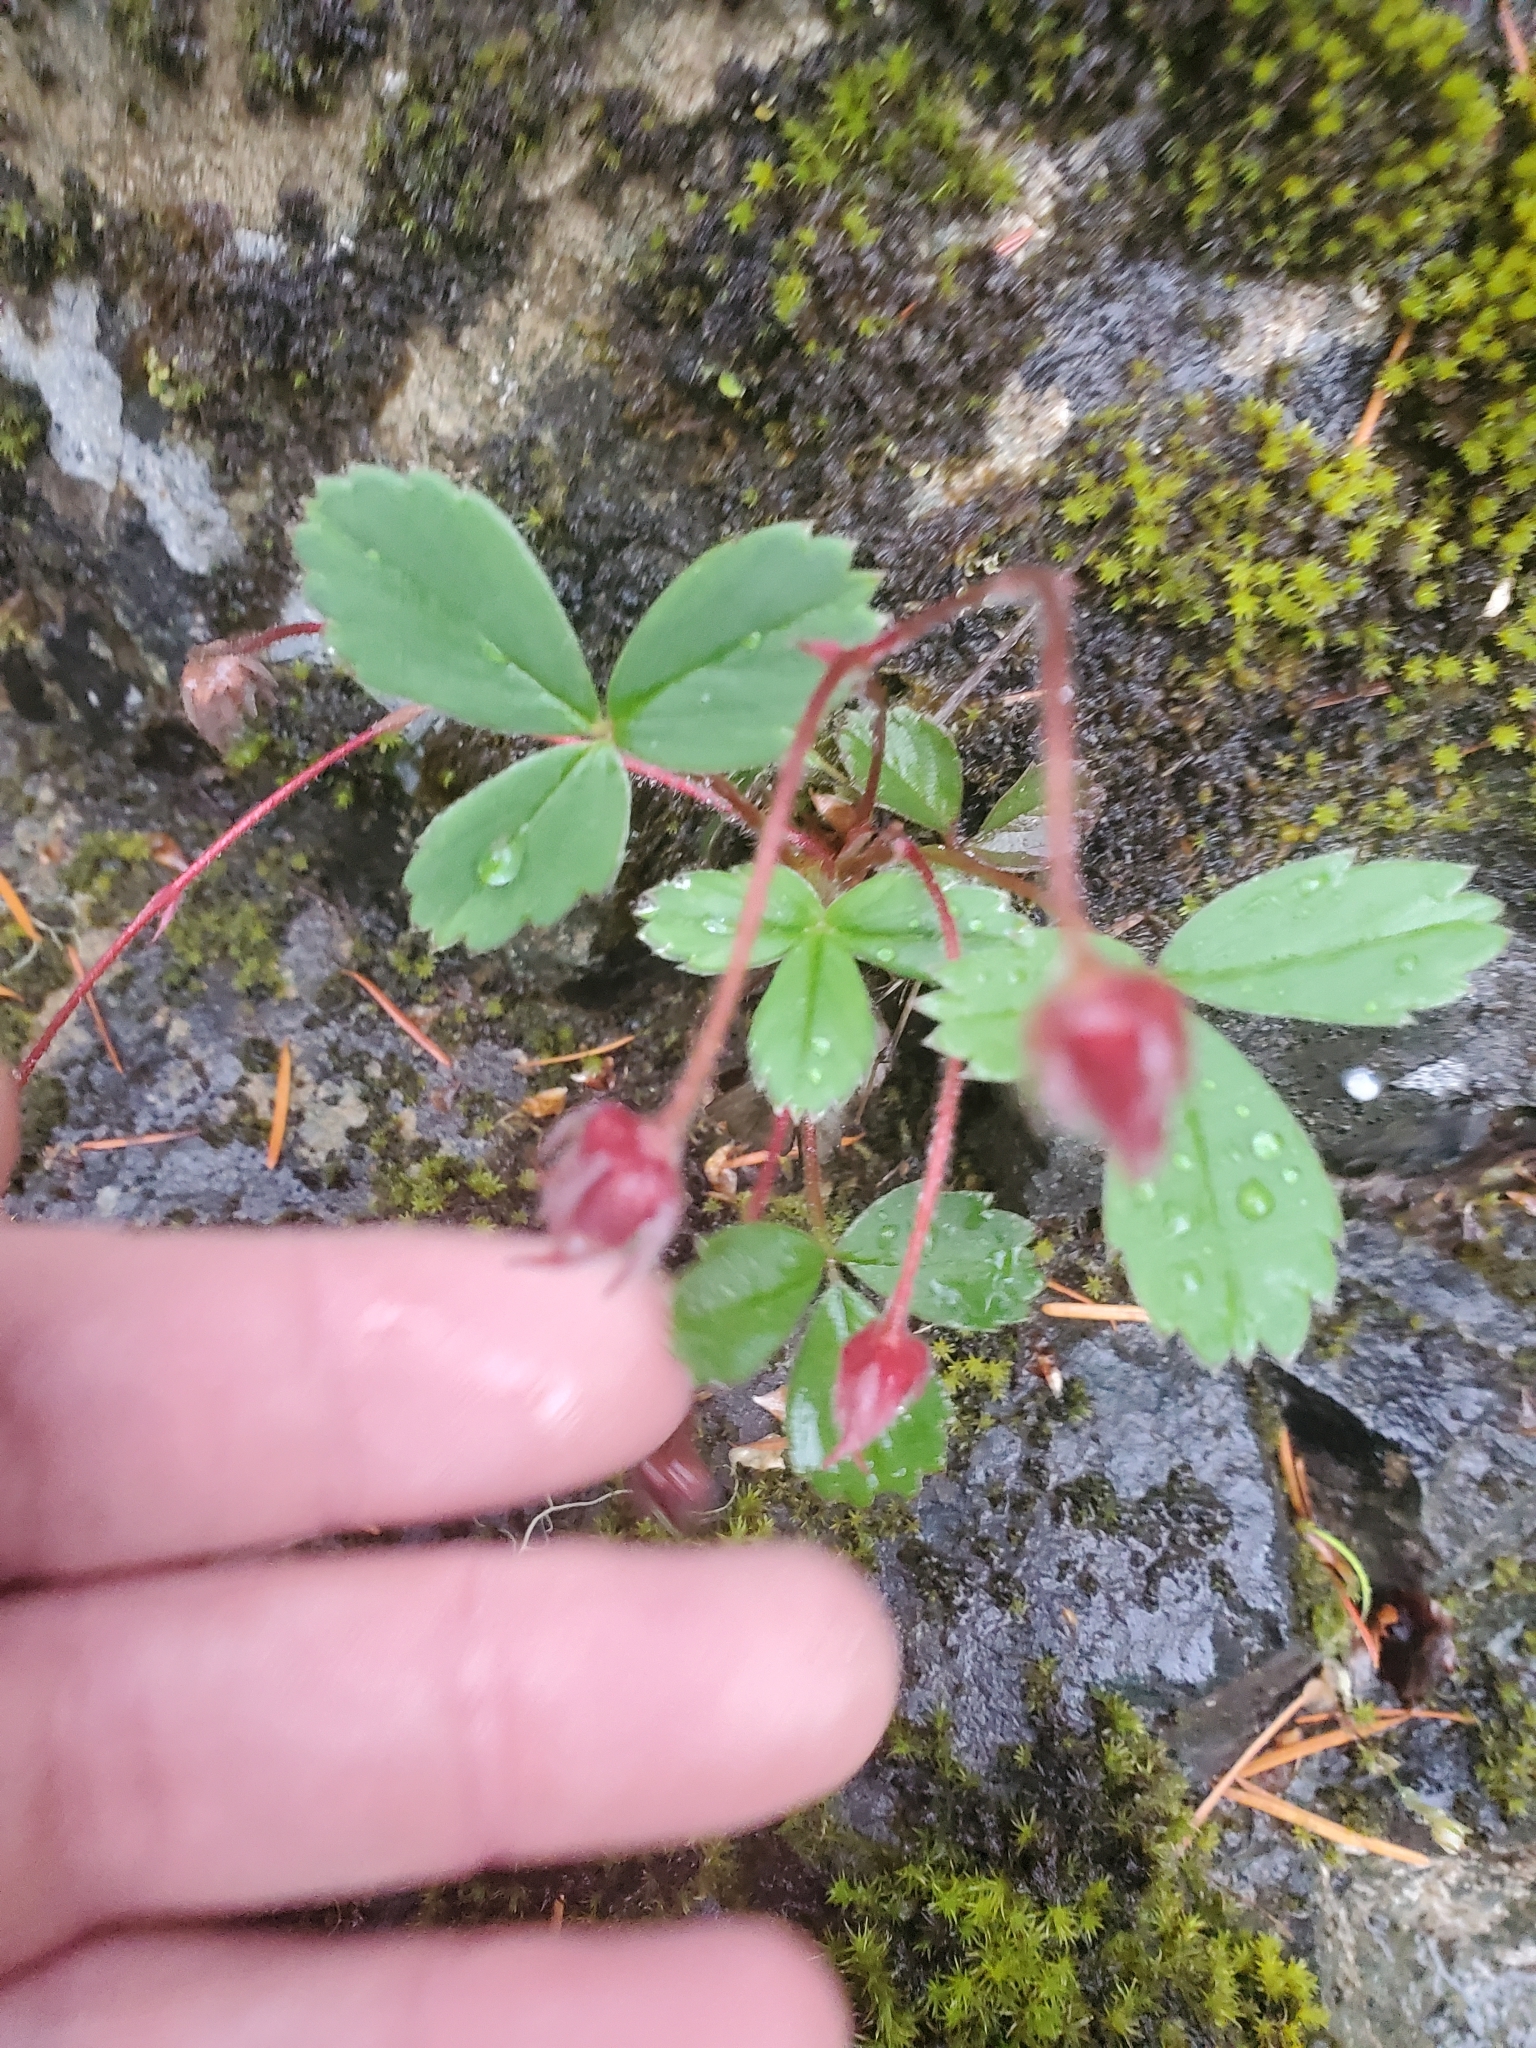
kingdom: Plantae
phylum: Tracheophyta
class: Magnoliopsida
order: Rosales
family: Rosaceae
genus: Fragaria
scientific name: Fragaria virginiana
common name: Thickleaved wild strawberry
